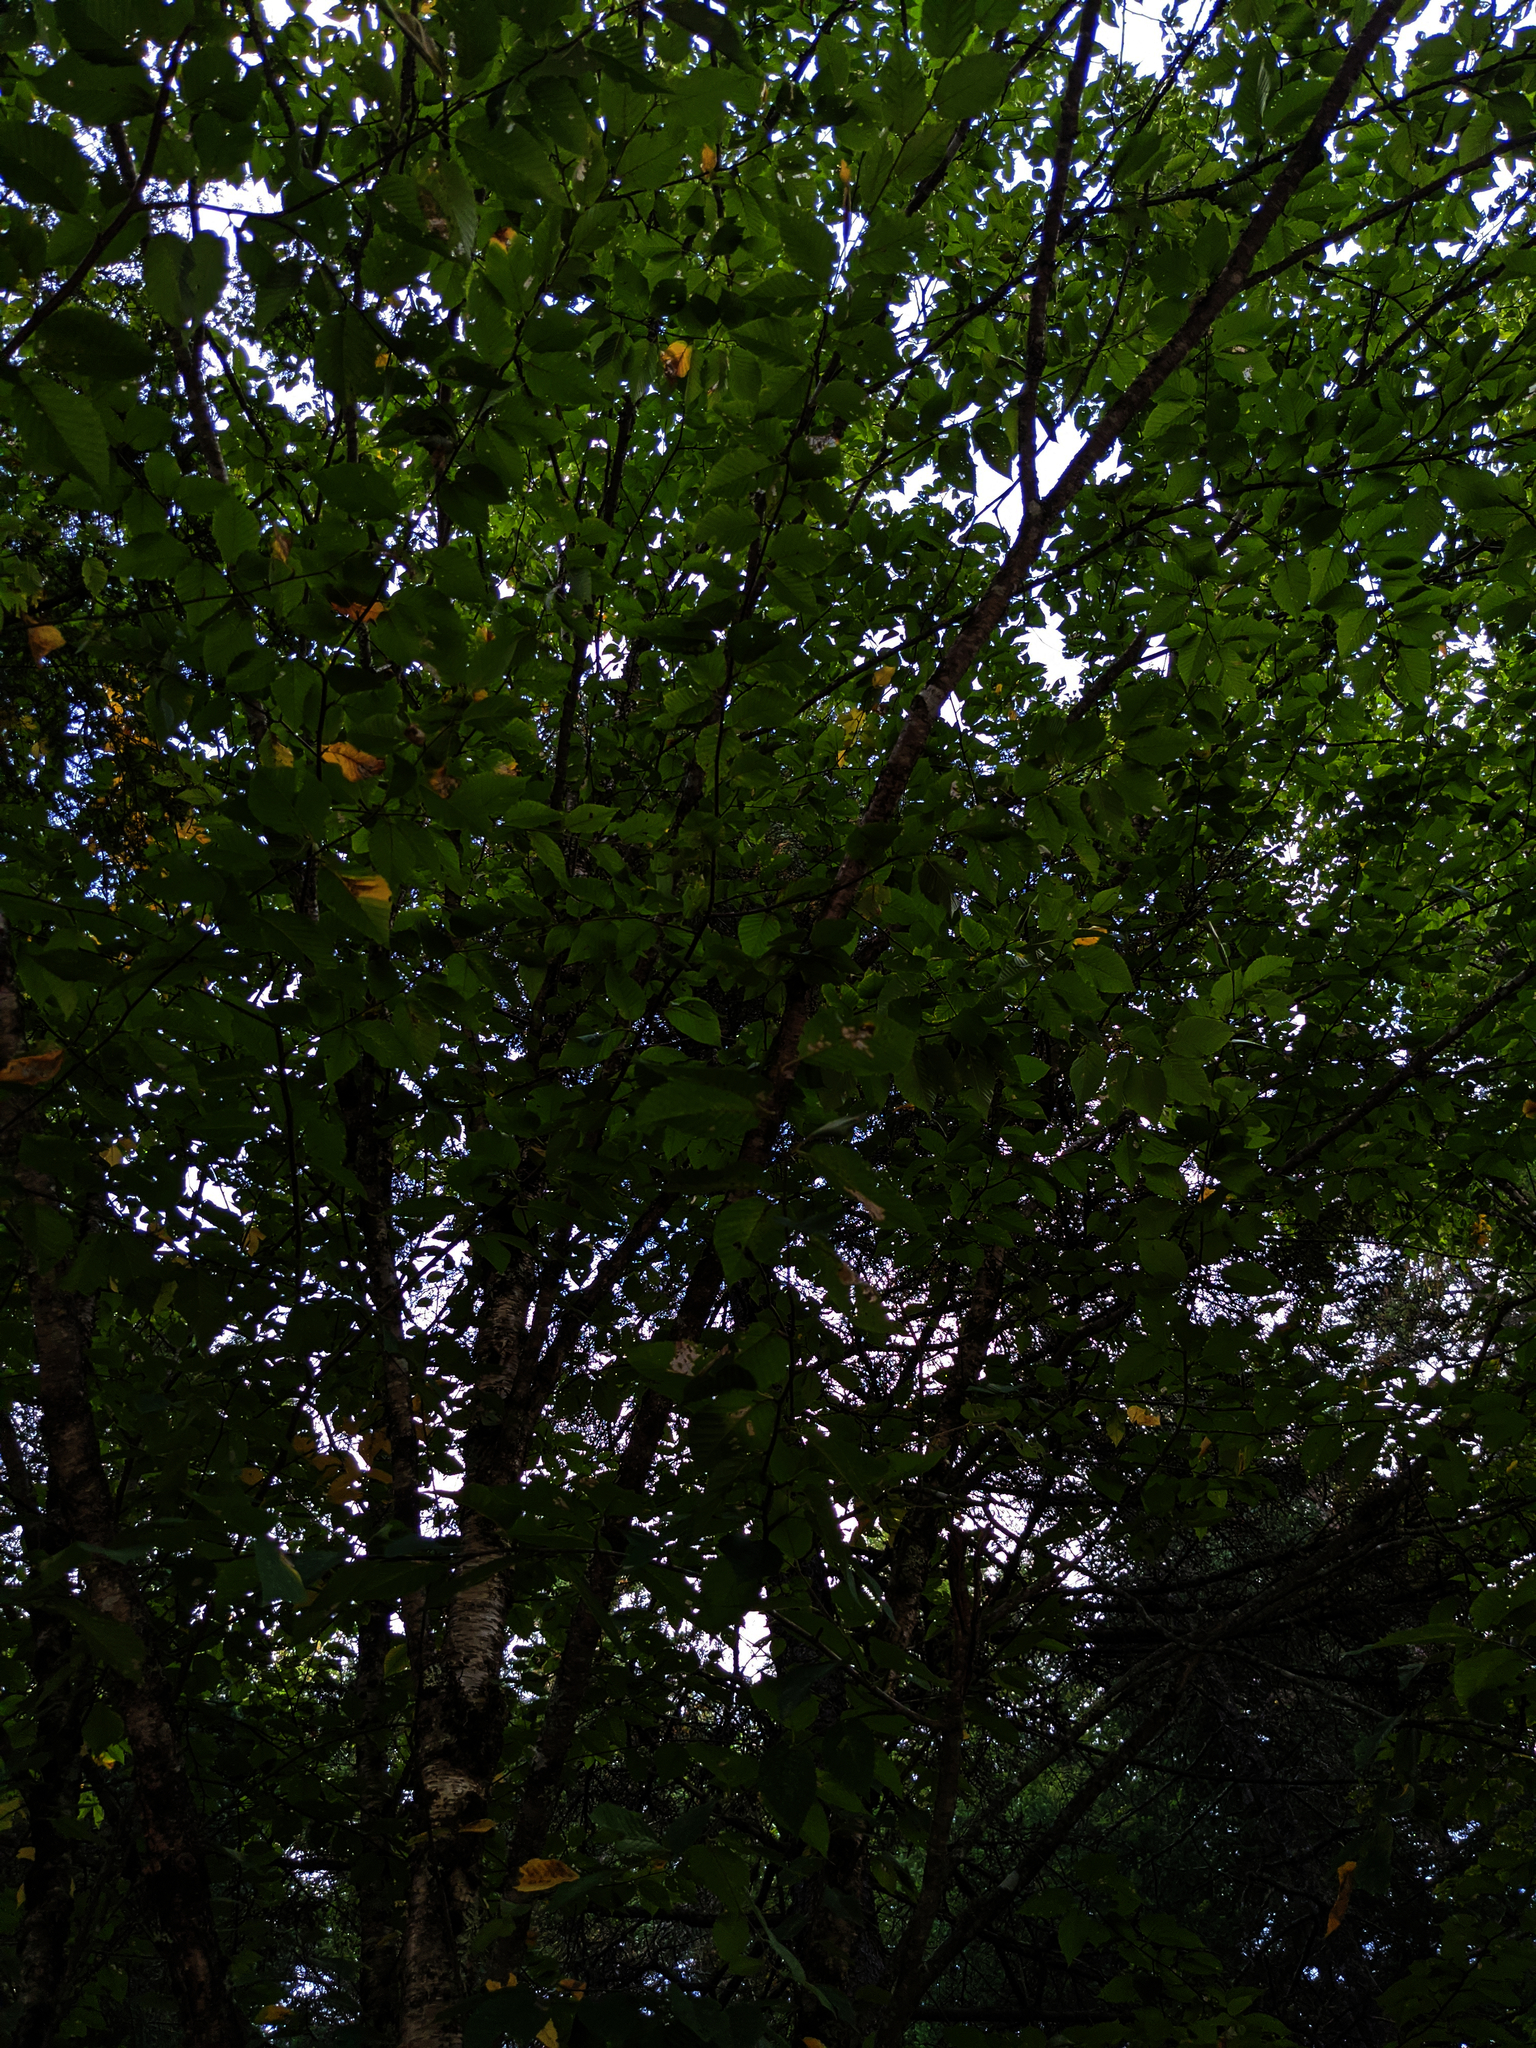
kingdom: Plantae
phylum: Tracheophyta
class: Magnoliopsida
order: Fagales
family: Betulaceae
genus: Betula
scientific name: Betula alleghaniensis
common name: Yellow birch
